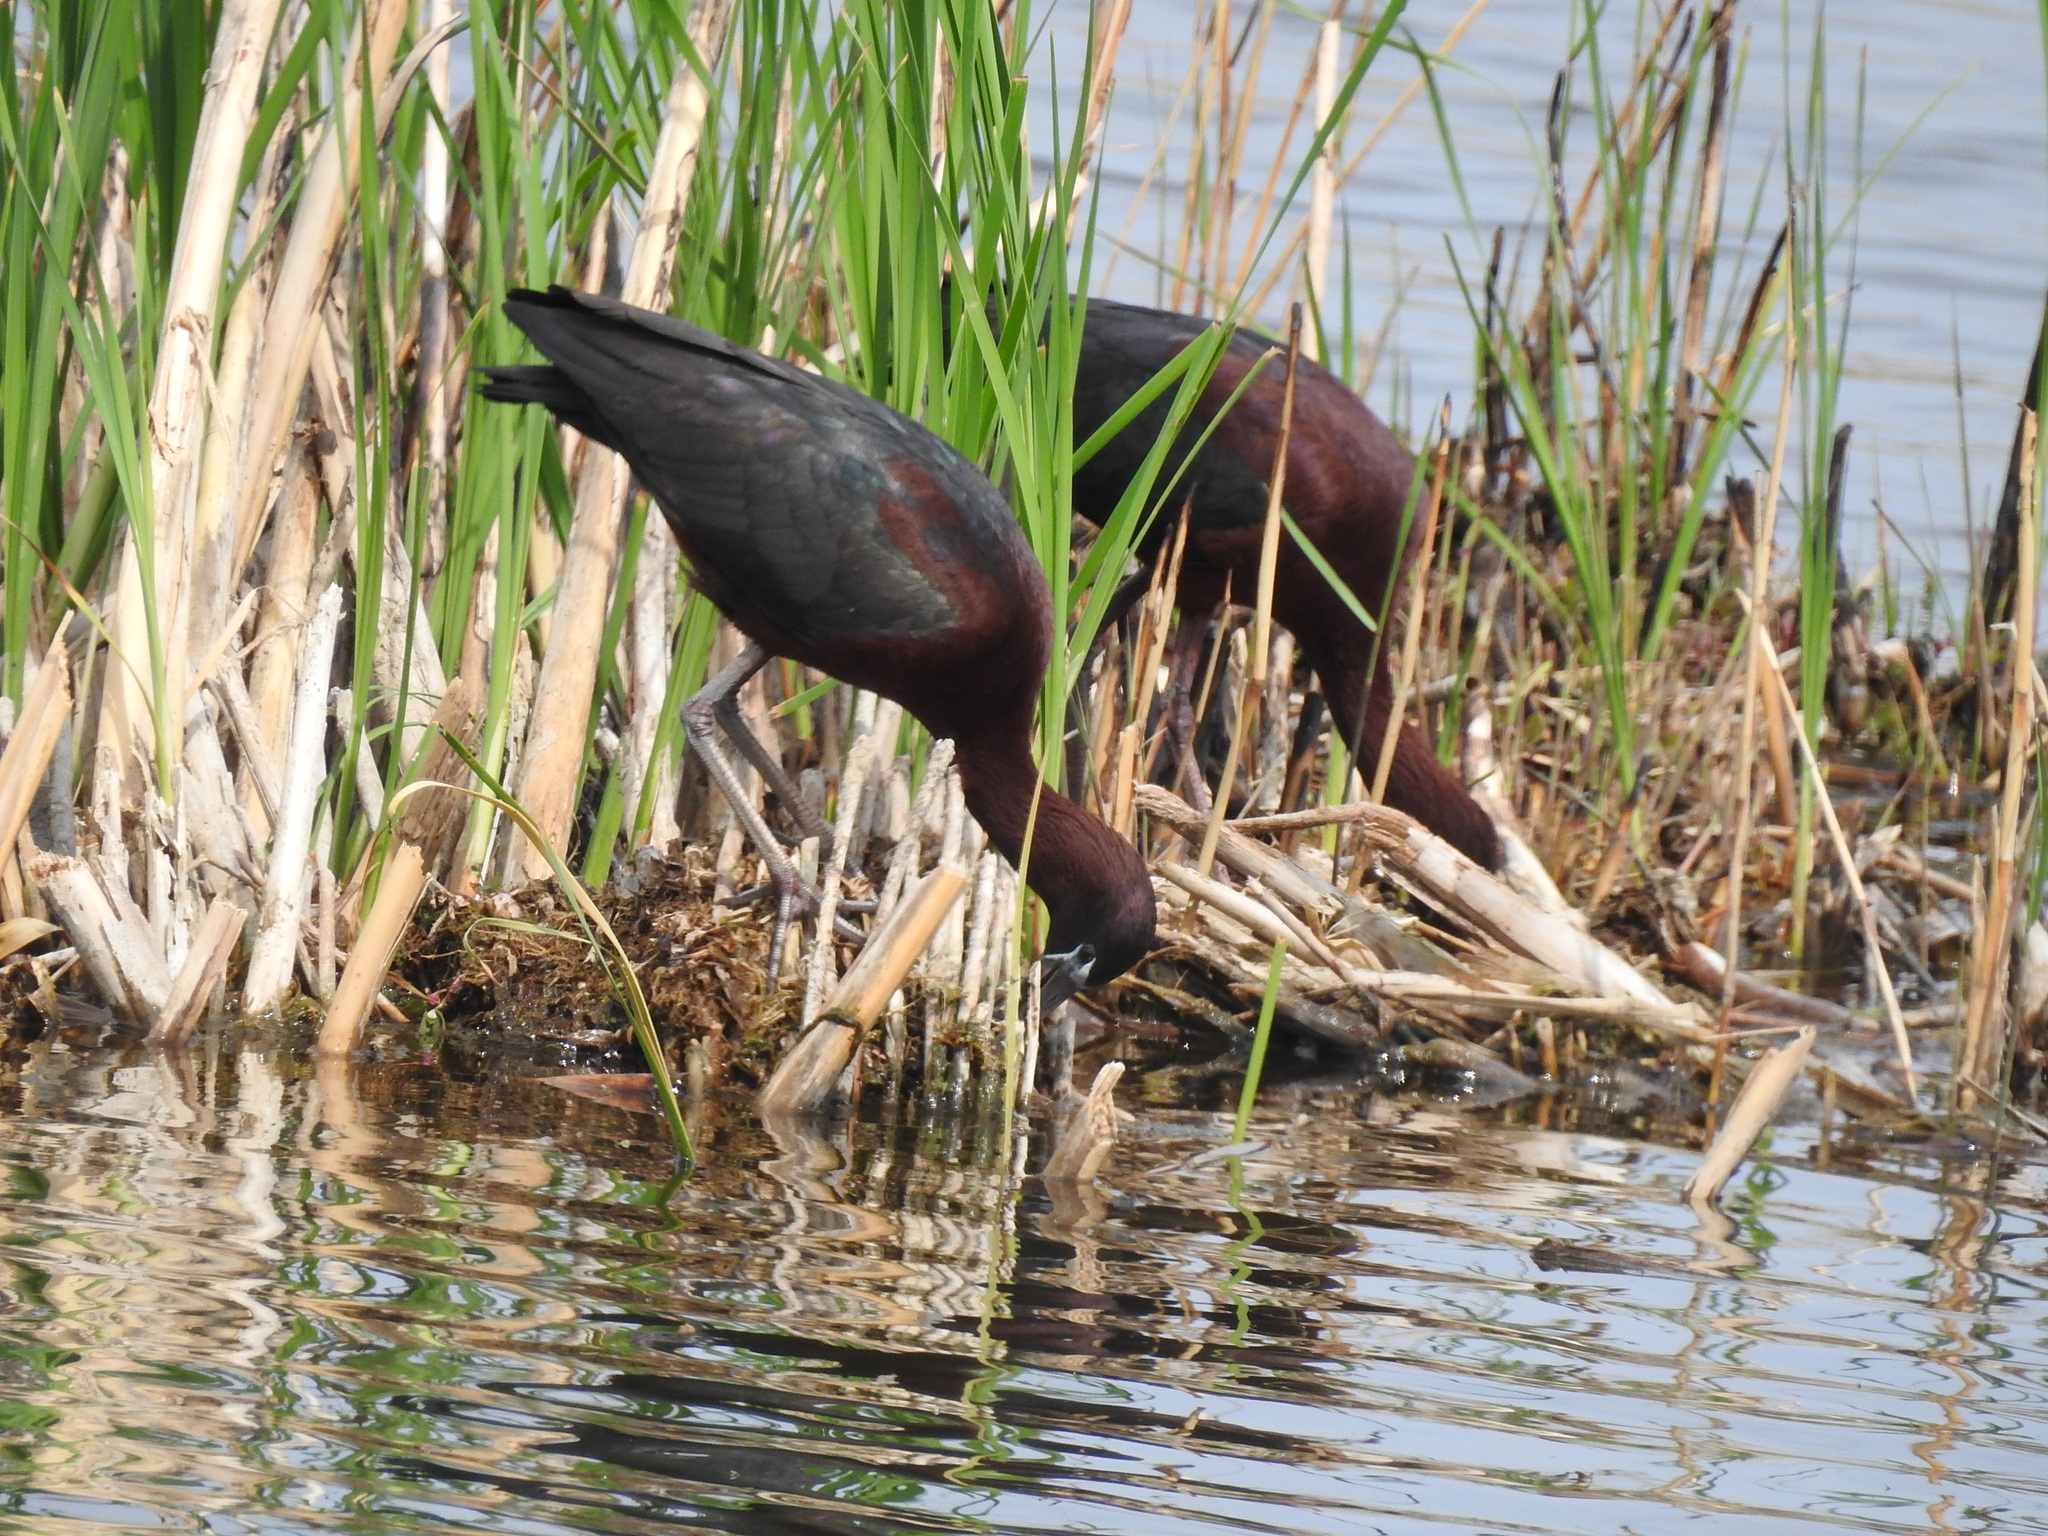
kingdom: Animalia
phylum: Chordata
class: Aves
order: Pelecaniformes
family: Threskiornithidae
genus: Plegadis
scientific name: Plegadis falcinellus
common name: Glossy ibis
